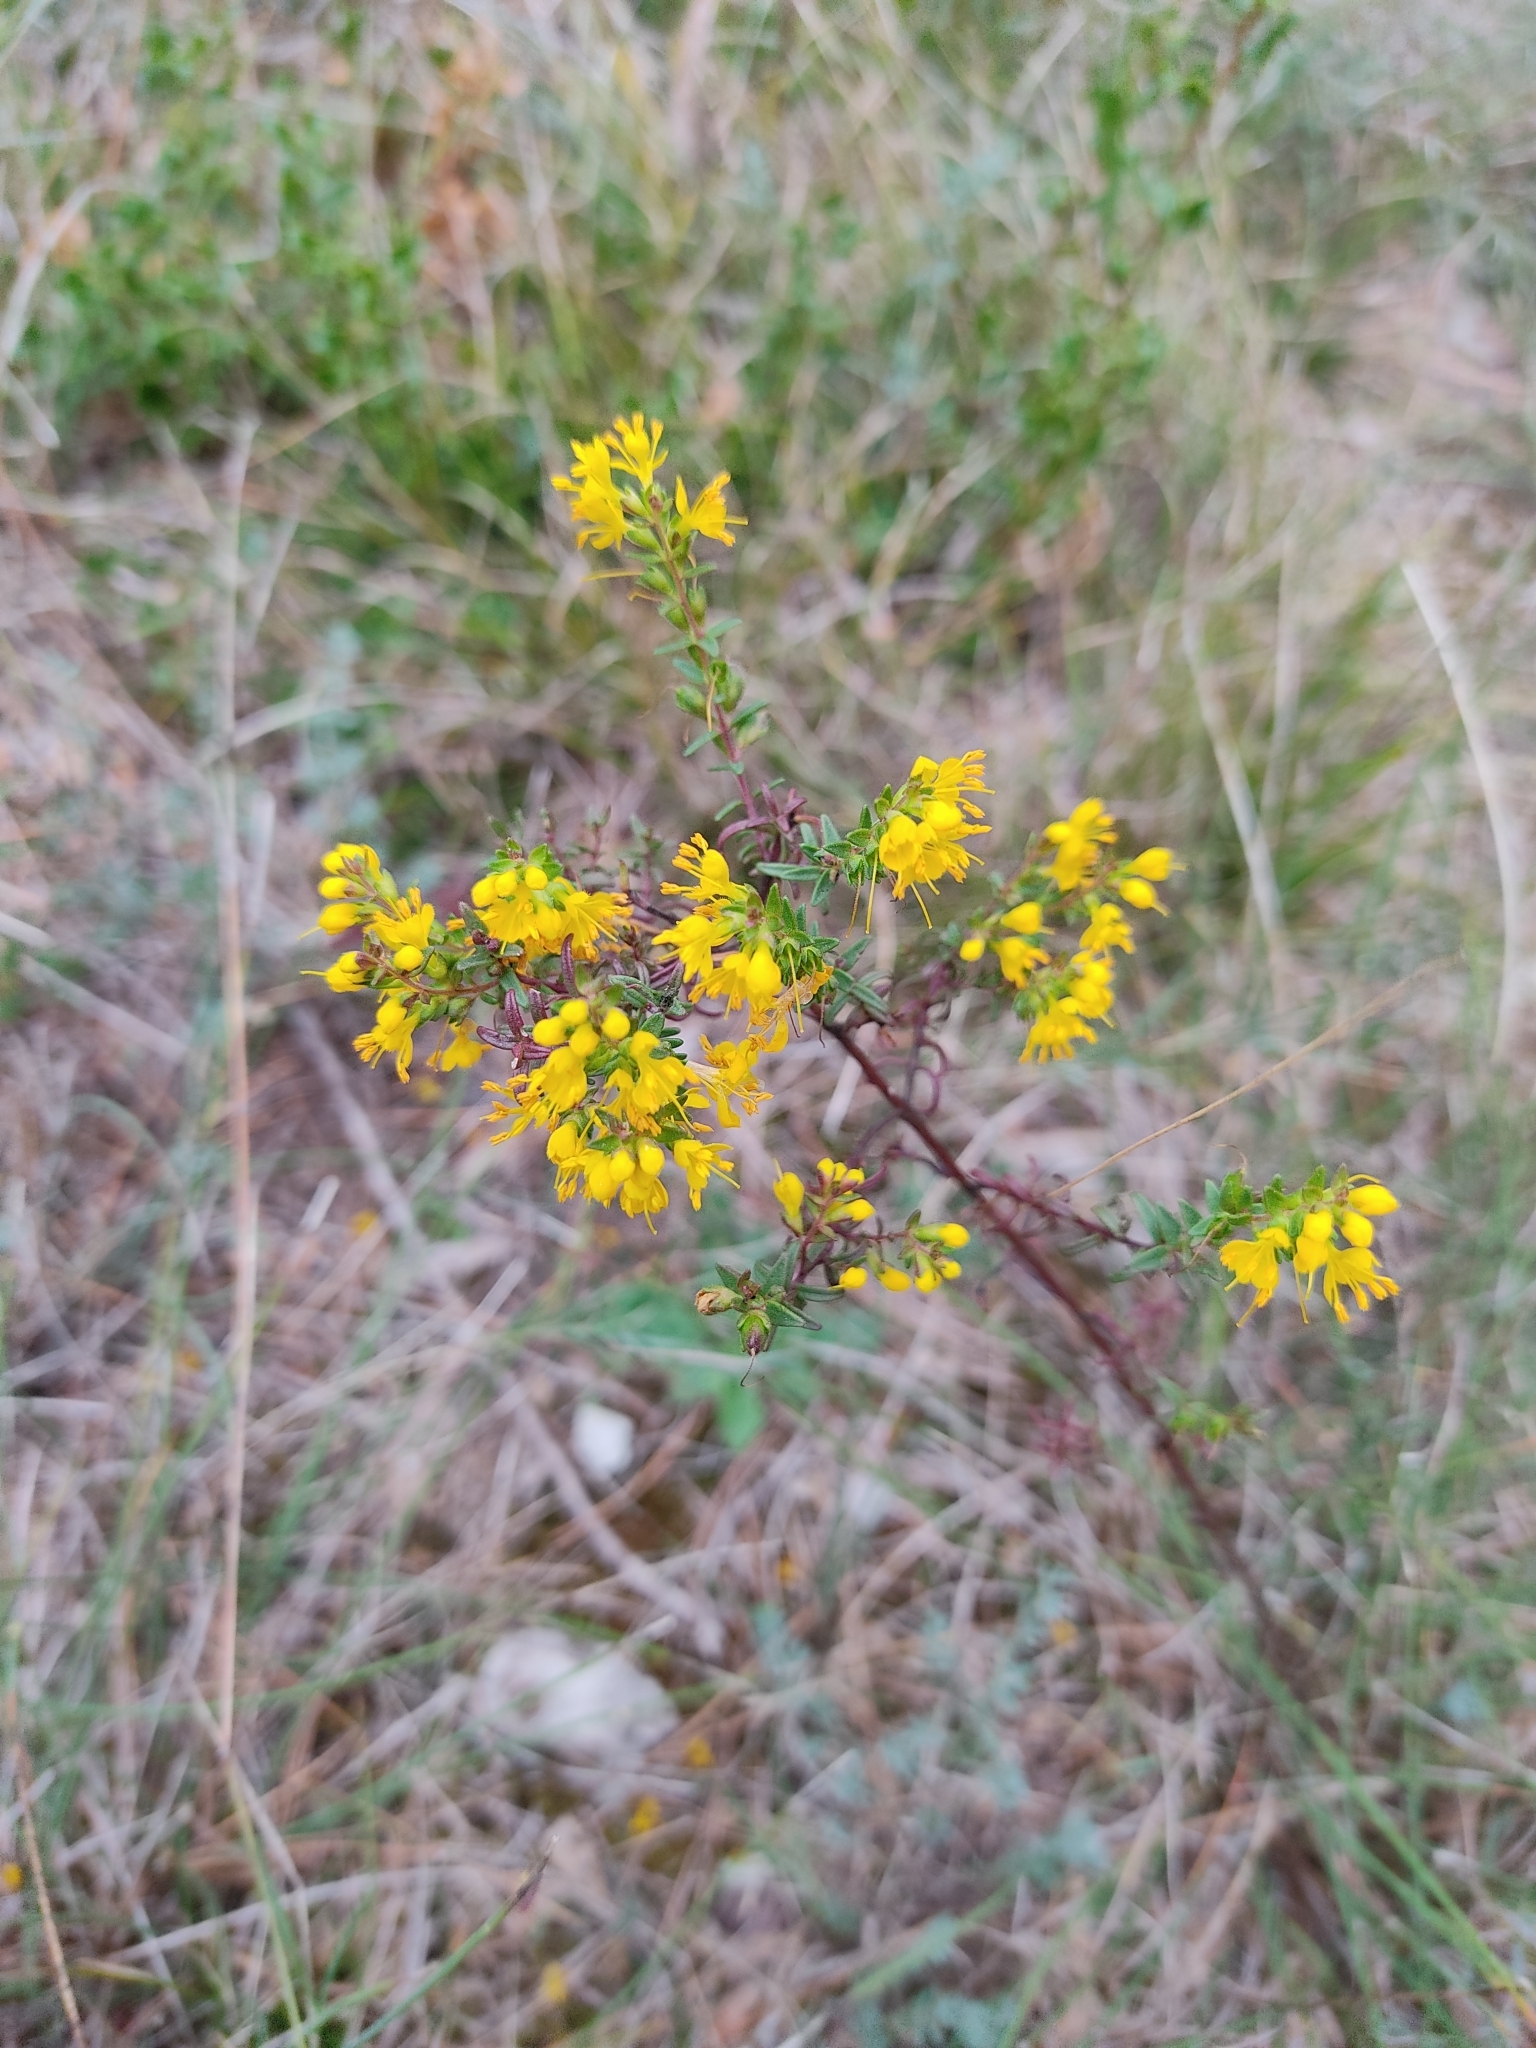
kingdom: Plantae
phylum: Tracheophyta
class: Magnoliopsida
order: Lamiales
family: Orobanchaceae
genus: Odontites
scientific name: Odontites luteus
